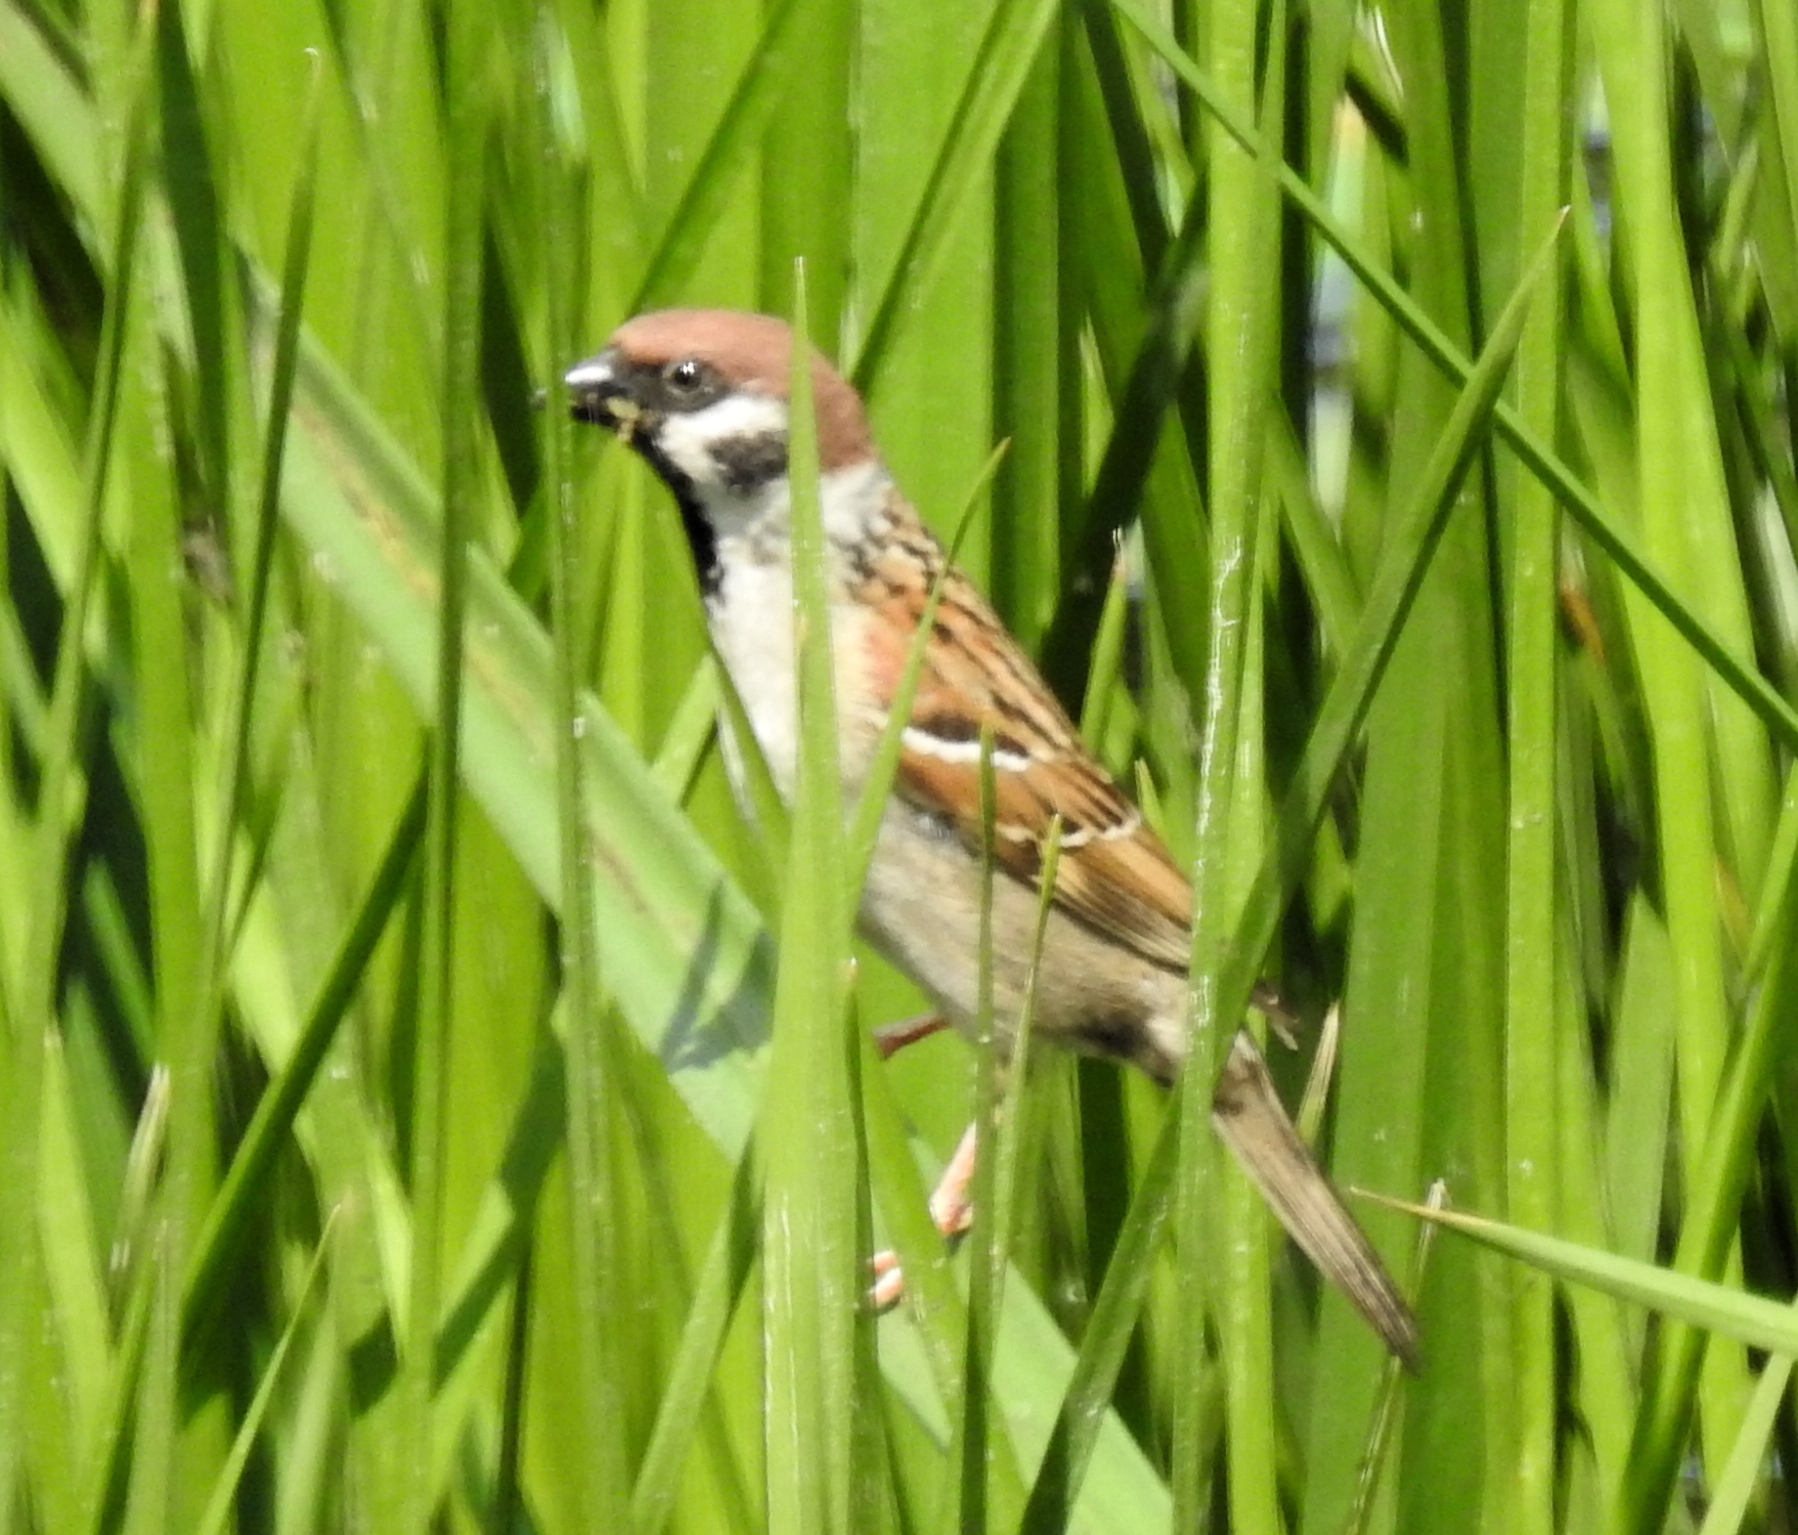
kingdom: Animalia
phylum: Chordata
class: Aves
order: Passeriformes
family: Passeridae
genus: Passer
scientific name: Passer montanus
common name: Eurasian tree sparrow
